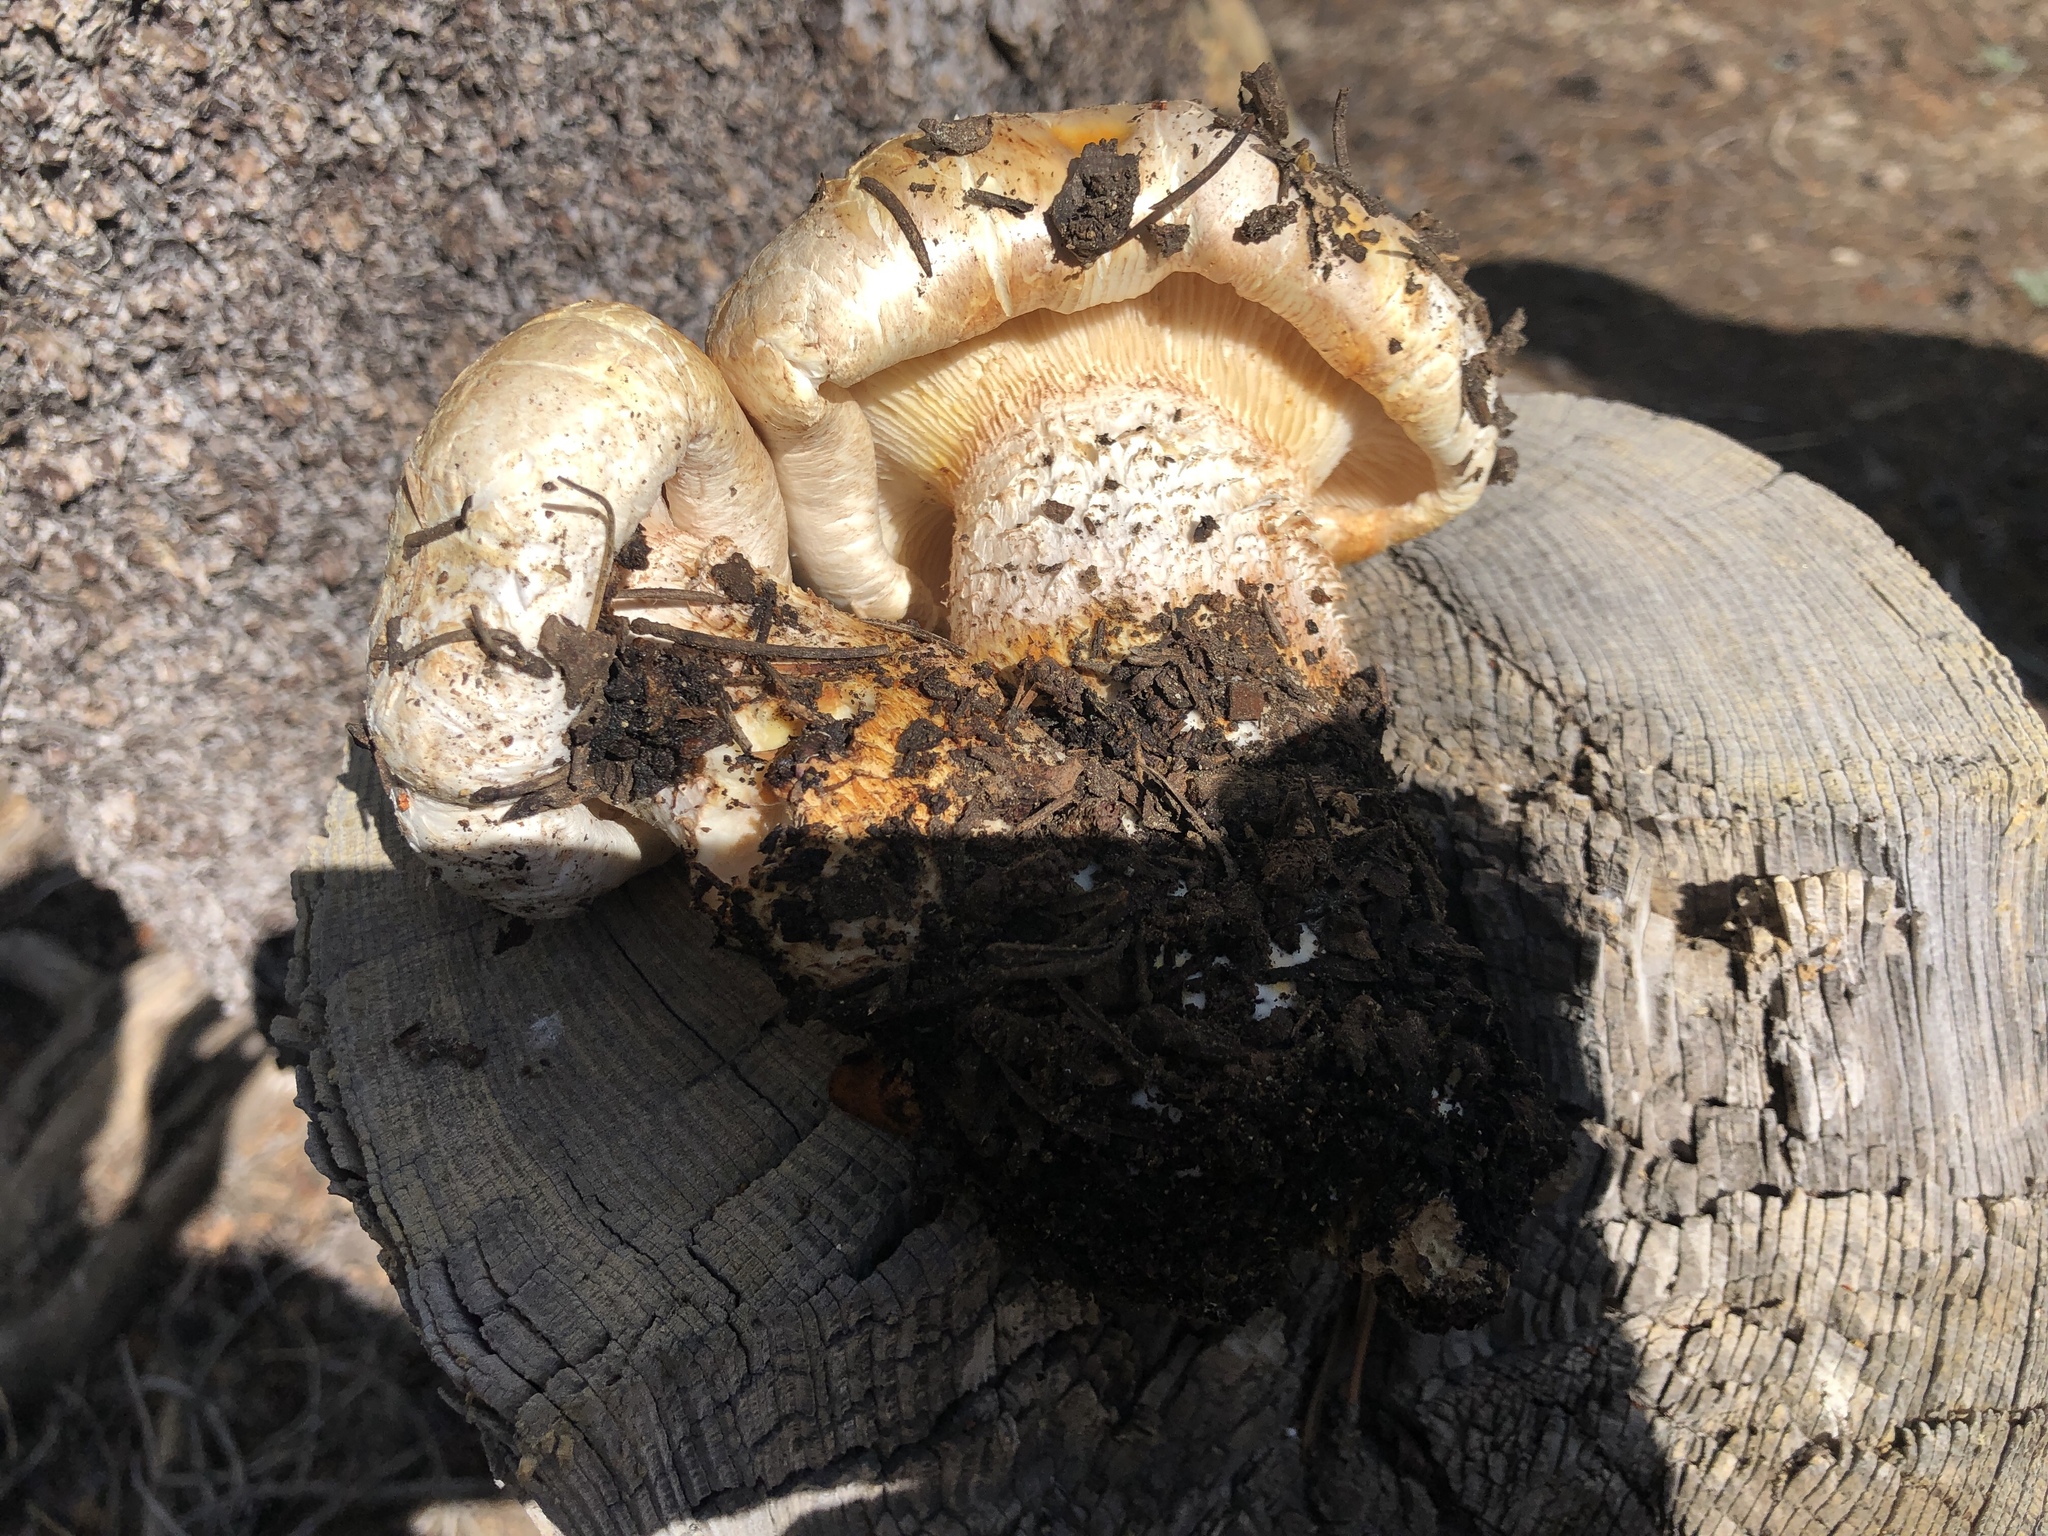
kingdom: Fungi
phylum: Basidiomycota
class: Agaricomycetes
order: Gloeophyllales
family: Gloeophyllaceae
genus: Neolentinus
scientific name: Neolentinus ponderosus
